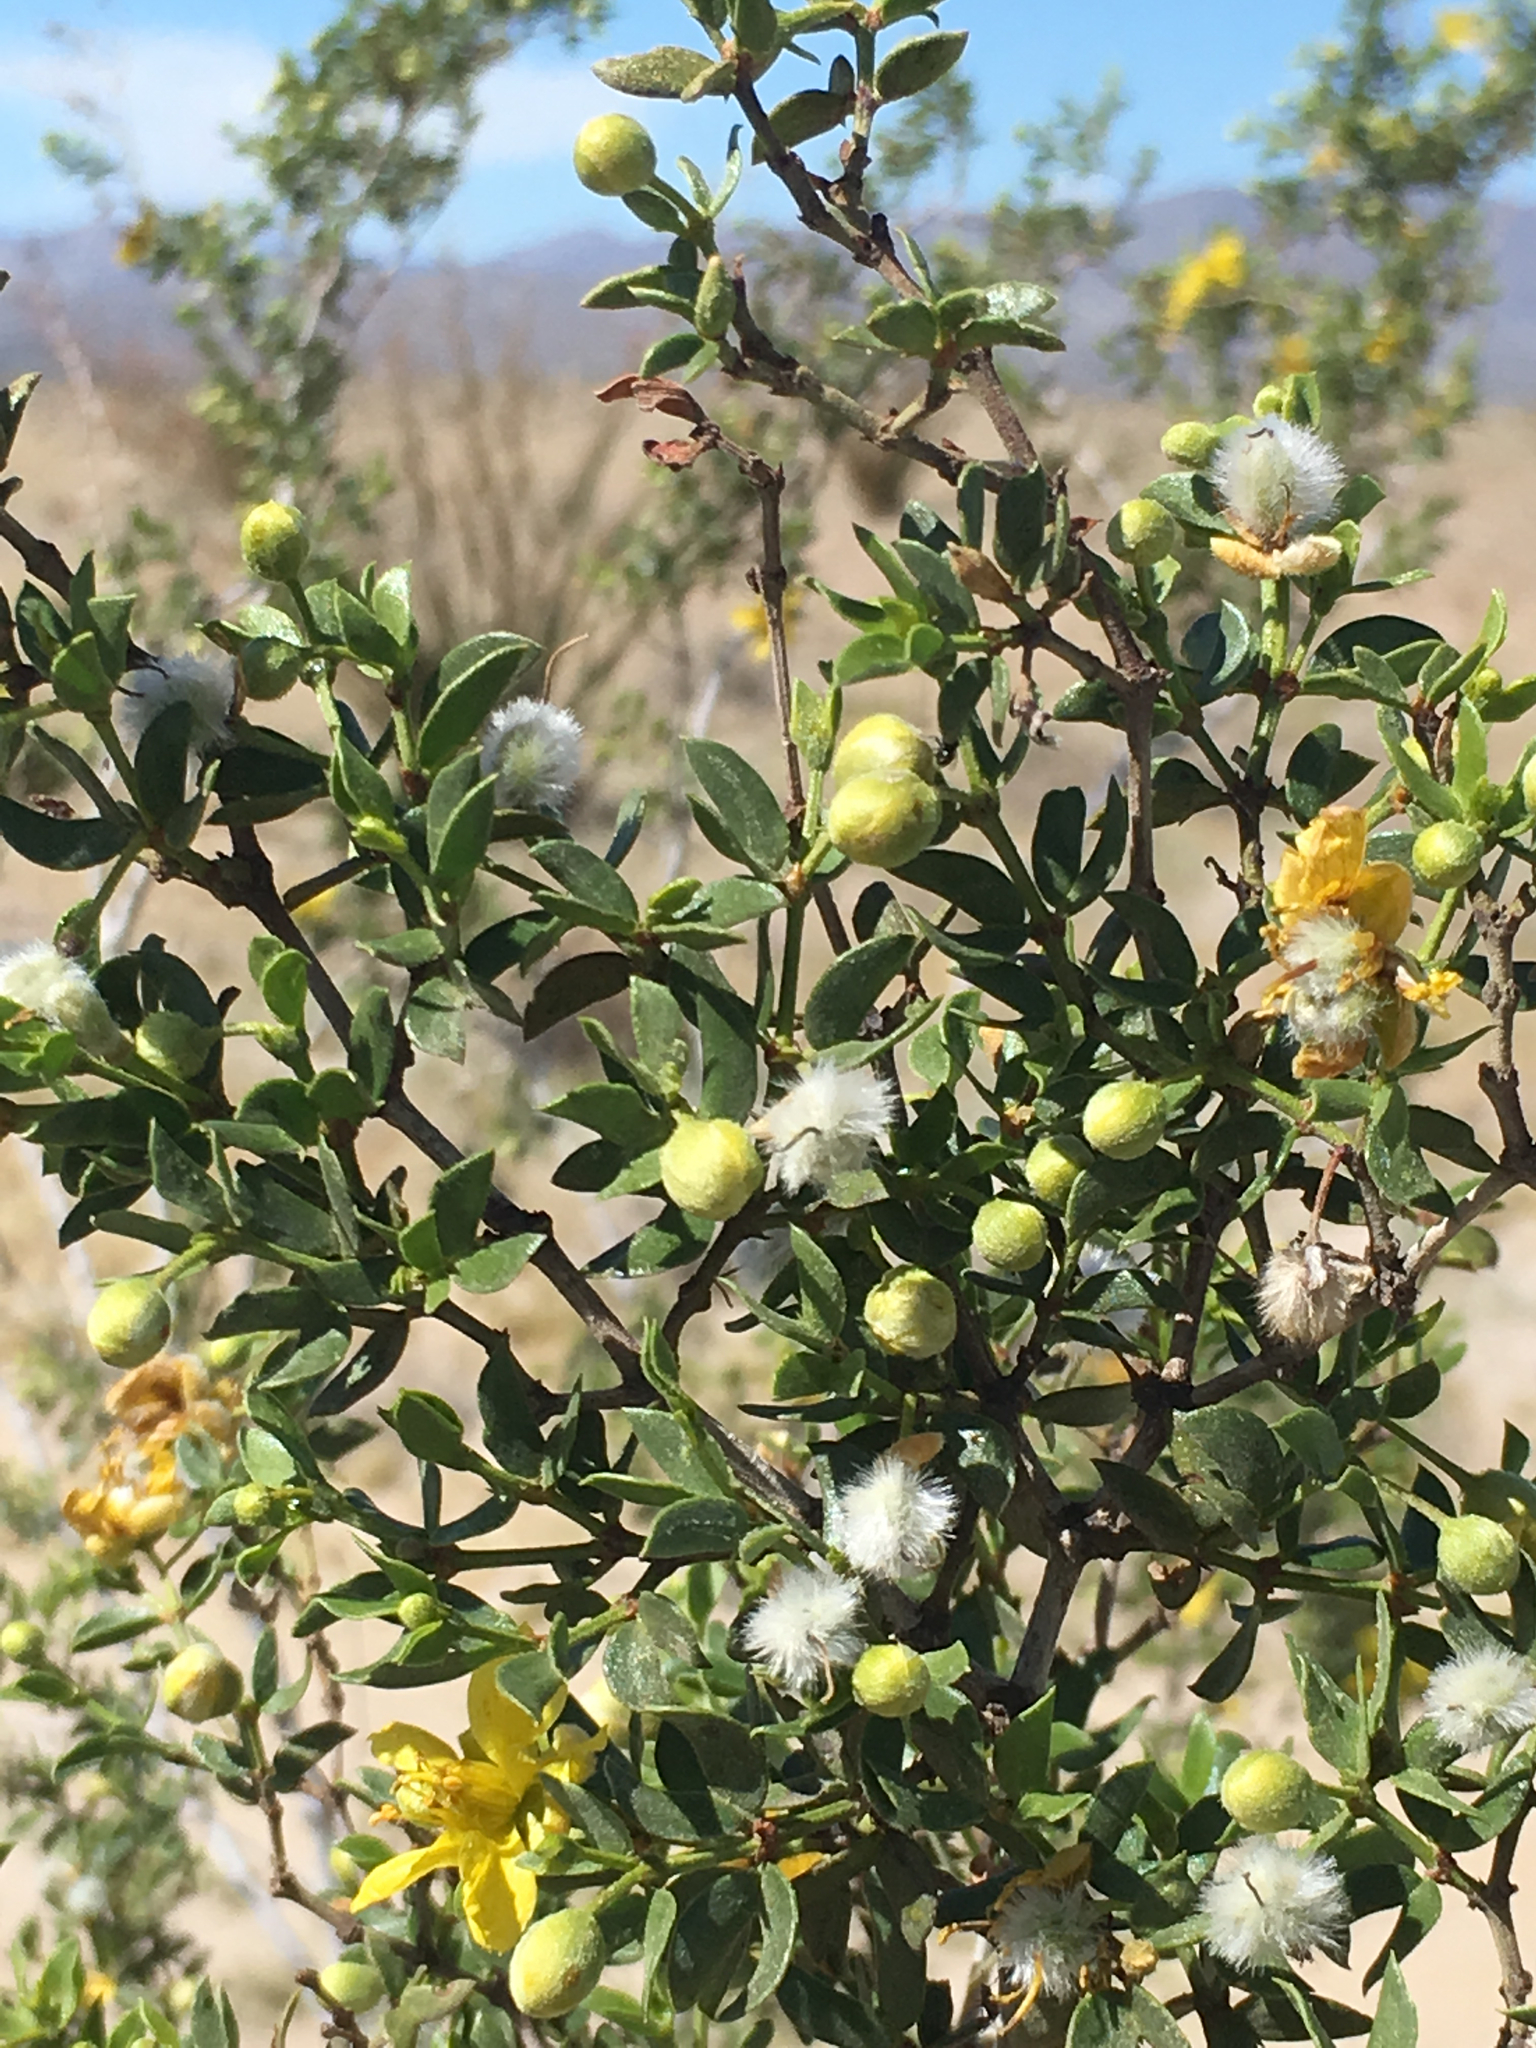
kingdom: Plantae
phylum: Tracheophyta
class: Magnoliopsida
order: Zygophyllales
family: Zygophyllaceae
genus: Larrea
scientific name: Larrea tridentata
